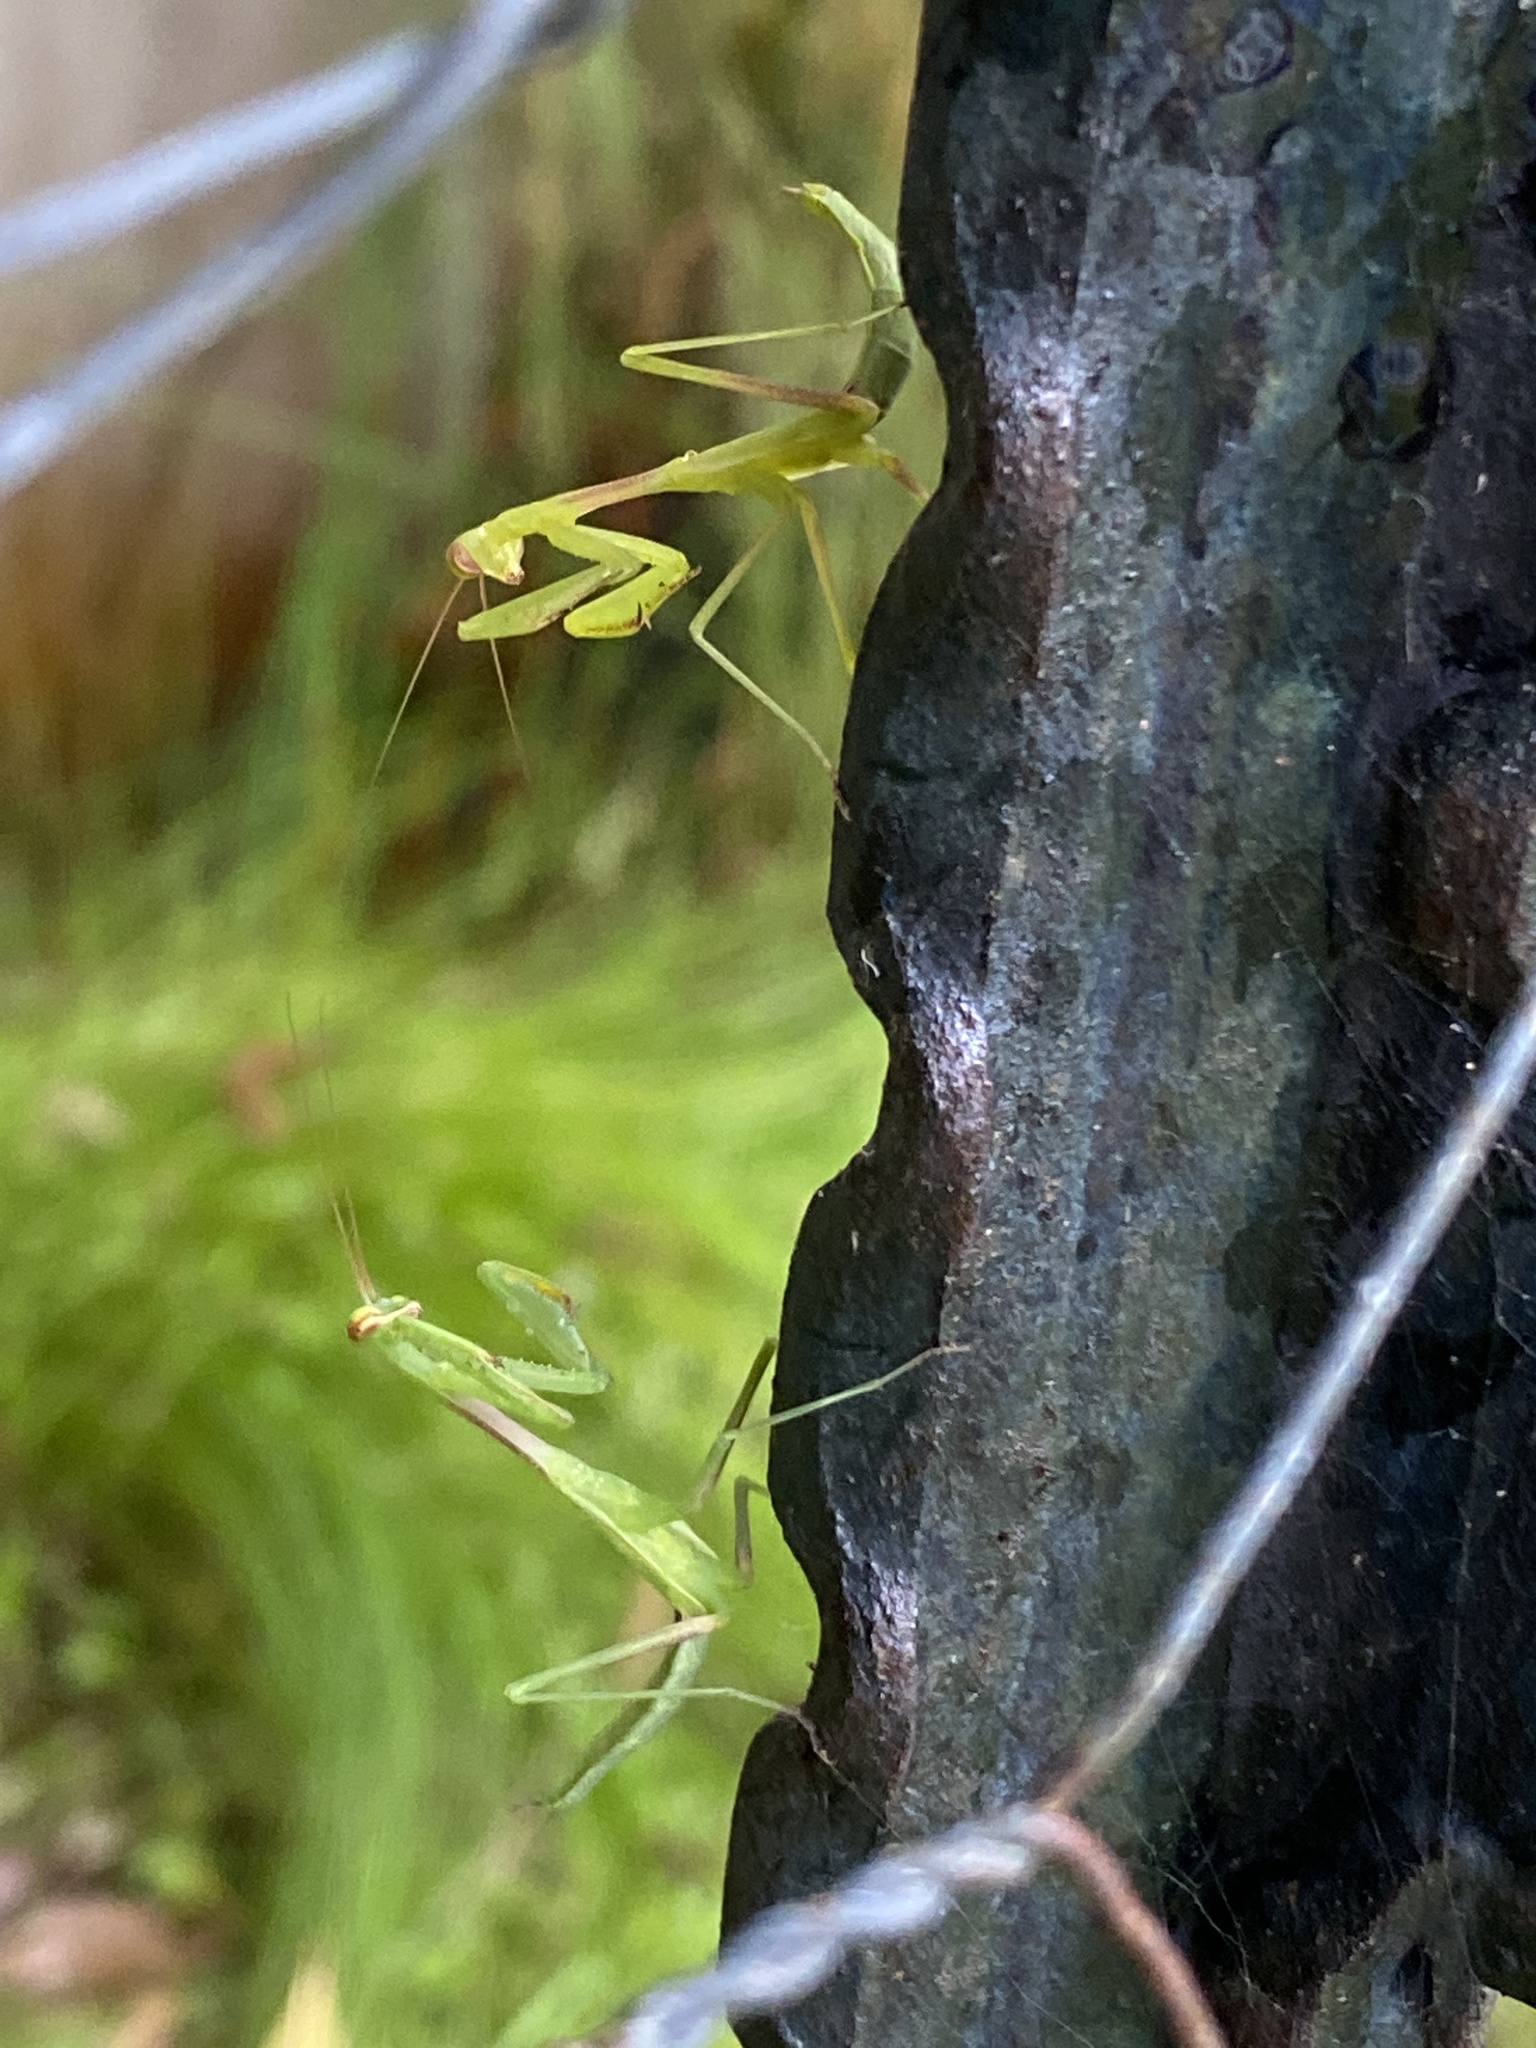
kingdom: Animalia
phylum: Arthropoda
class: Insecta
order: Mantodea
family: Miomantidae
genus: Miomantis
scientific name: Miomantis caffra
